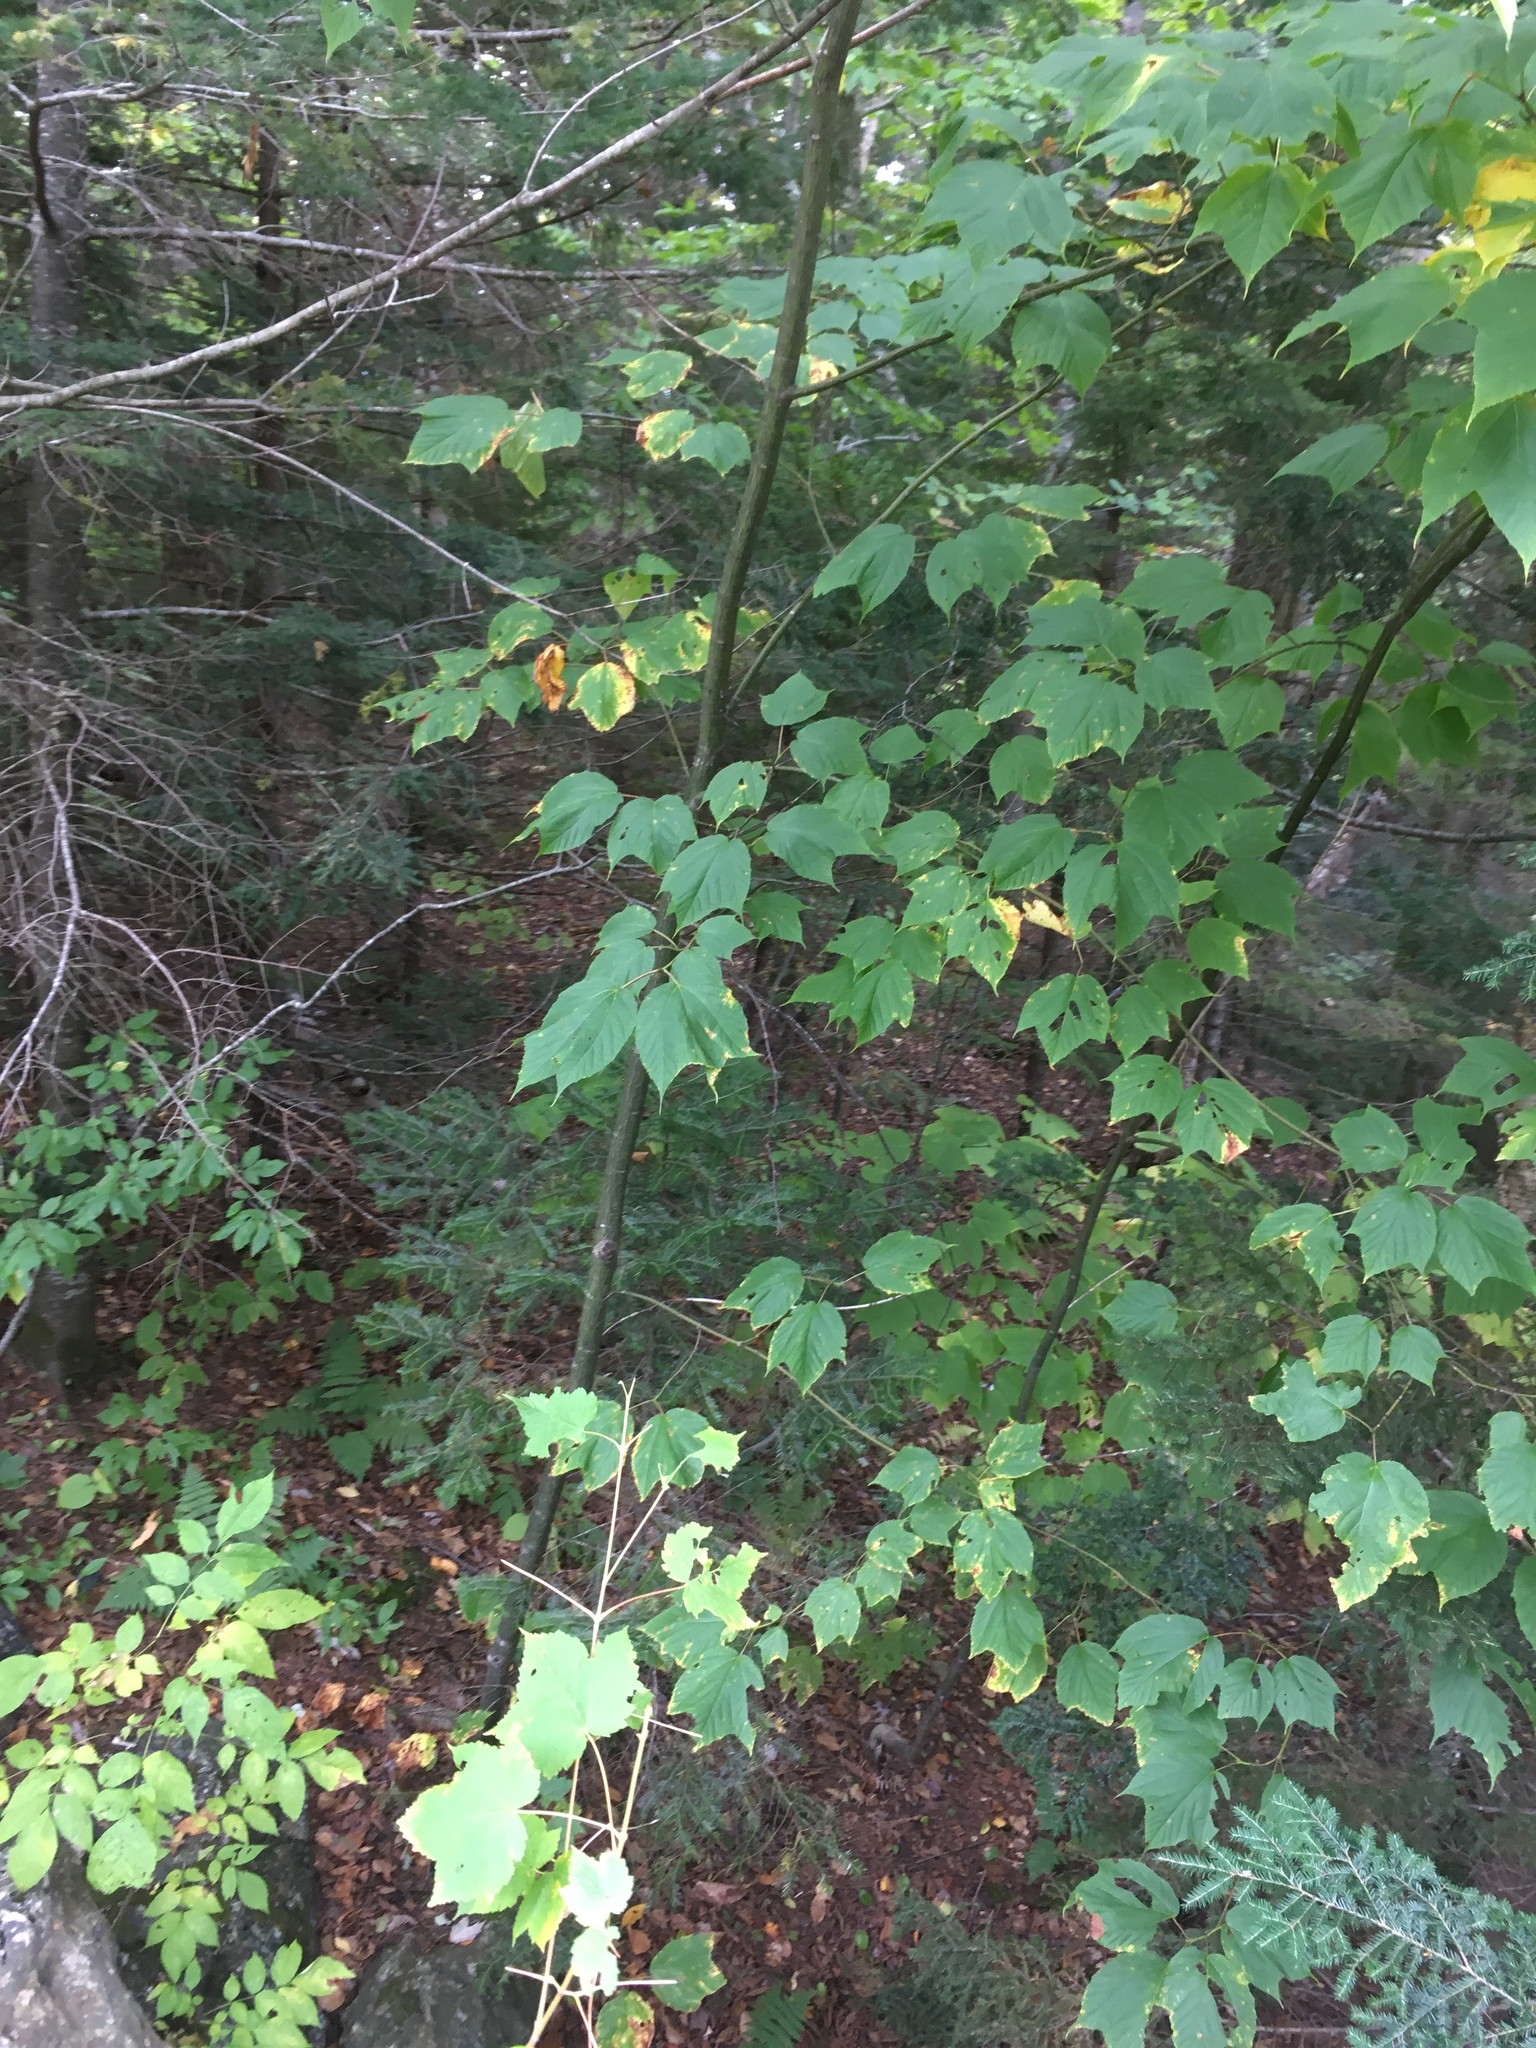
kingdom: Plantae
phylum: Tracheophyta
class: Magnoliopsida
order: Sapindales
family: Sapindaceae
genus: Acer
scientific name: Acer pensylvanicum
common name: Moosewood
